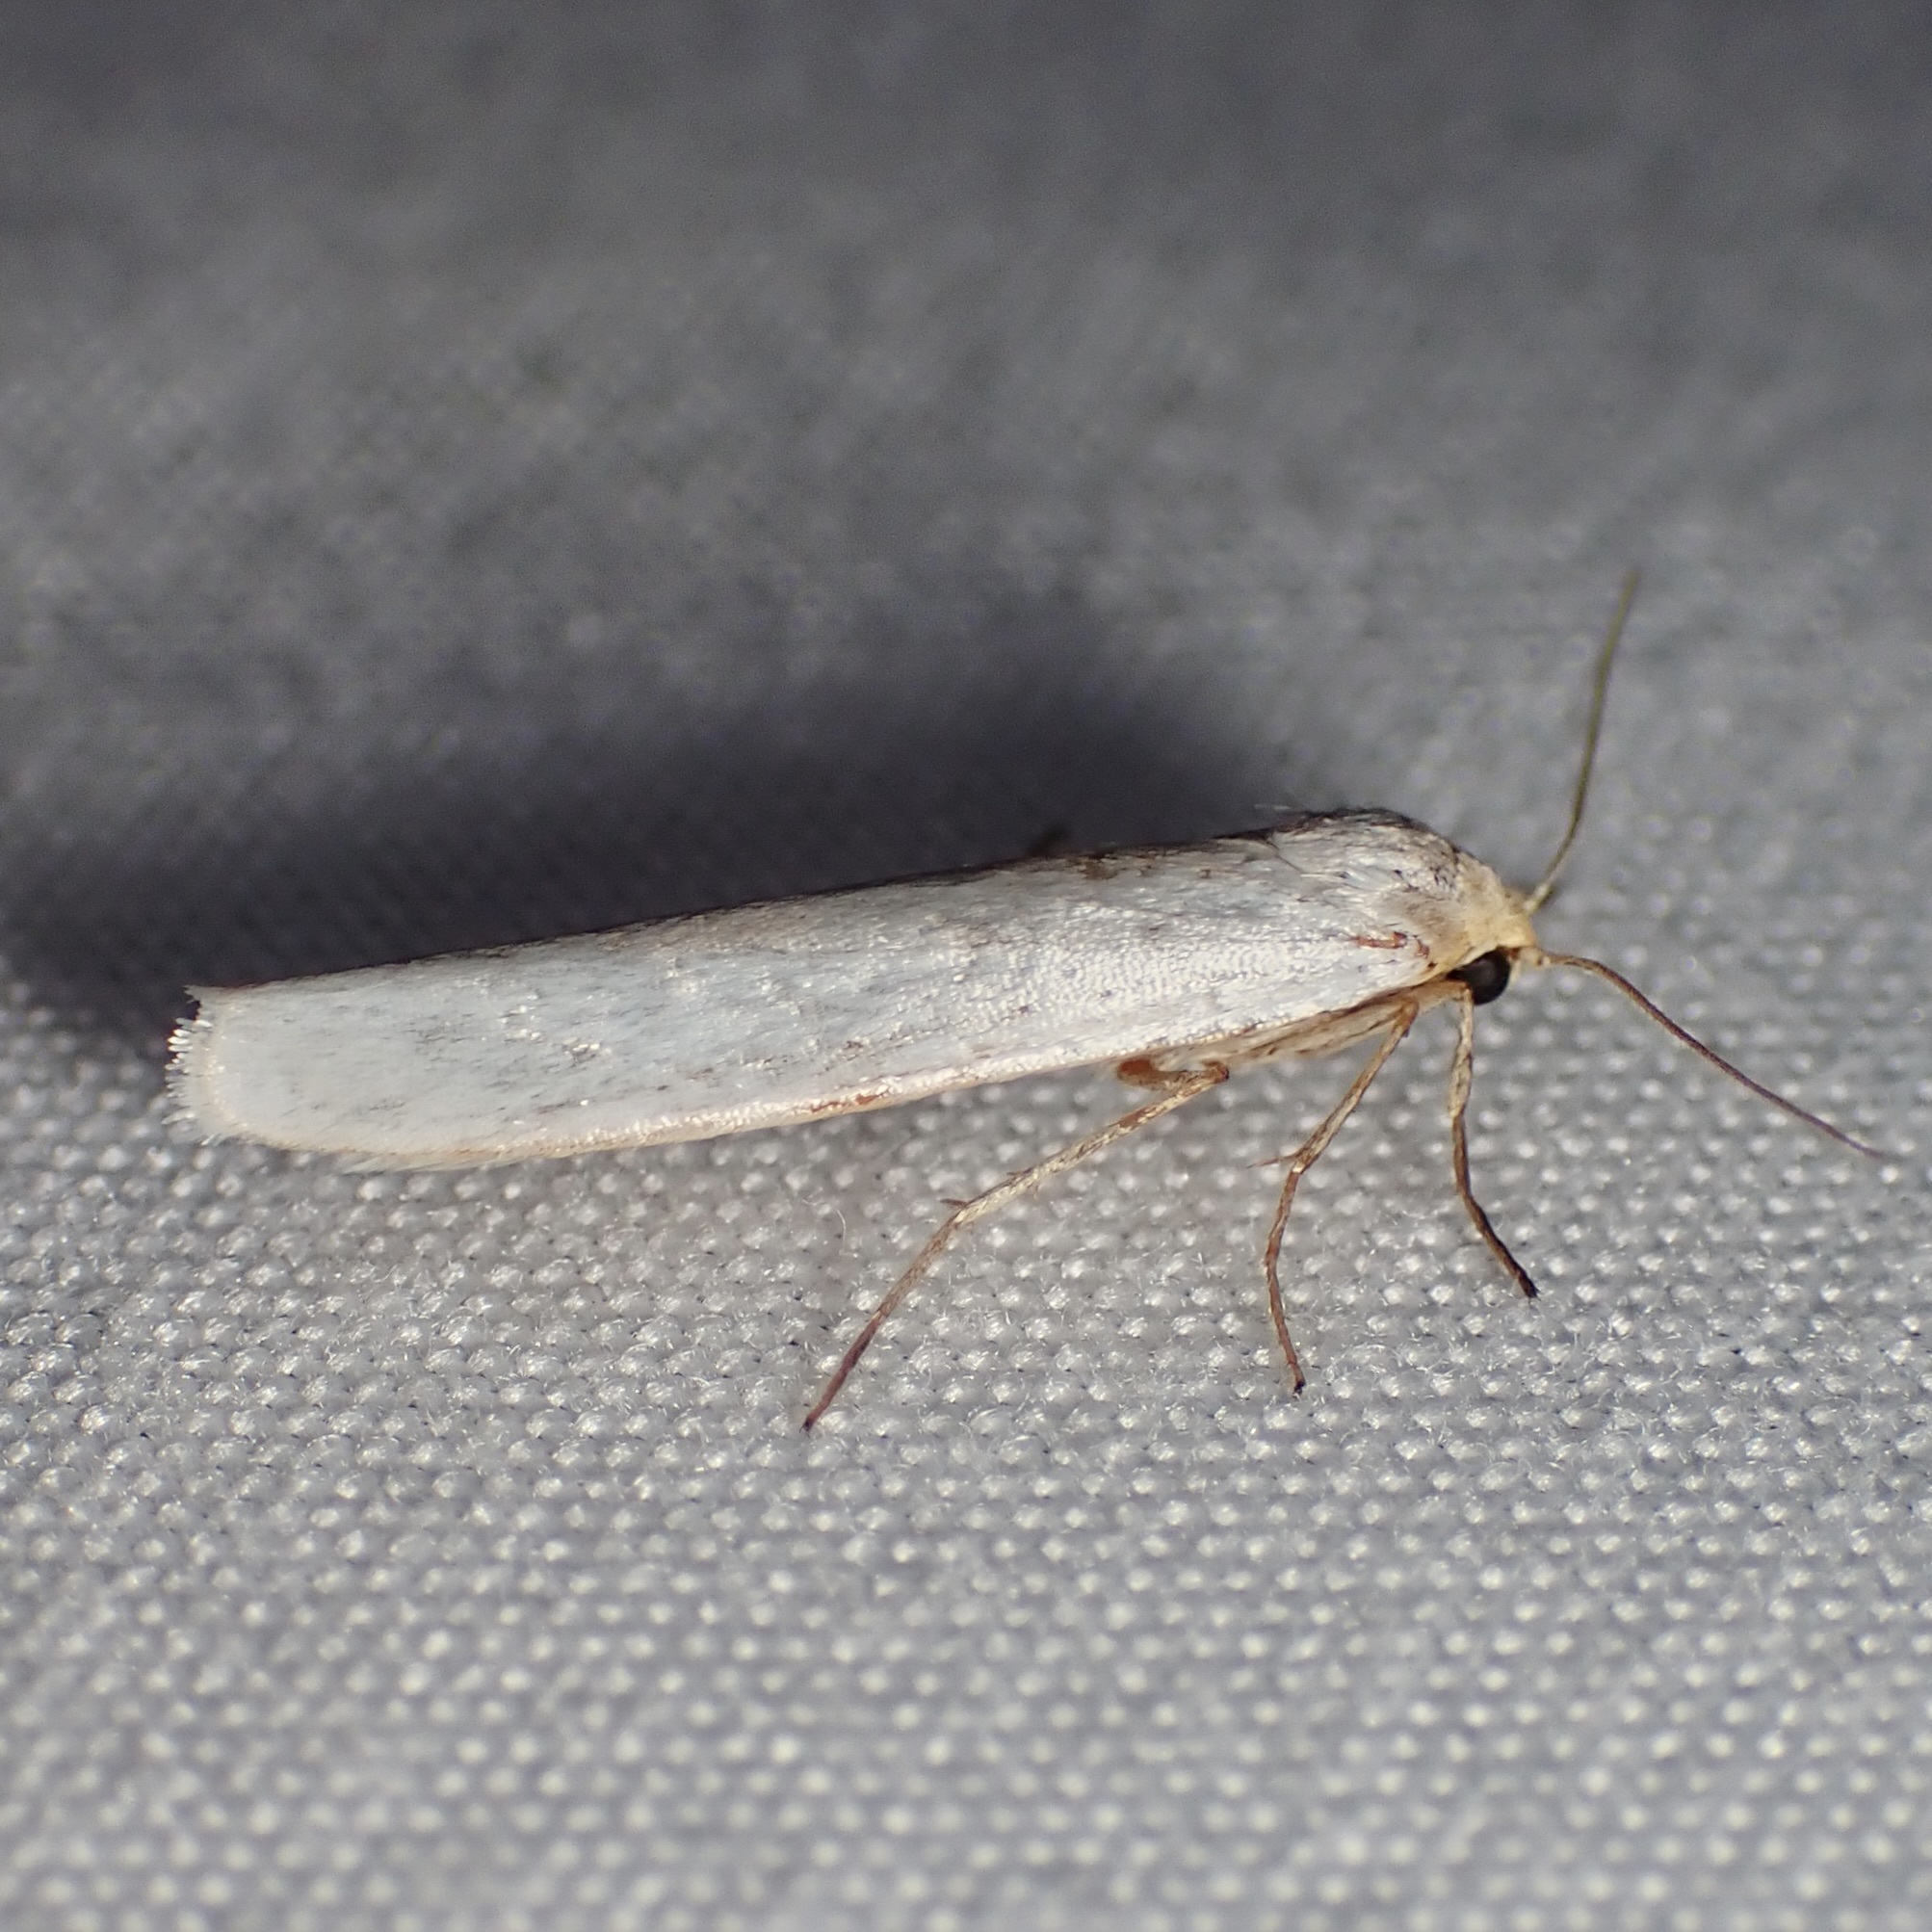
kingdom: Animalia
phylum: Arthropoda
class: Insecta
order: Lepidoptera
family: Erebidae
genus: Crambidia
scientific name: Crambidia cephalica
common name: Yellow-headed lichen moth
